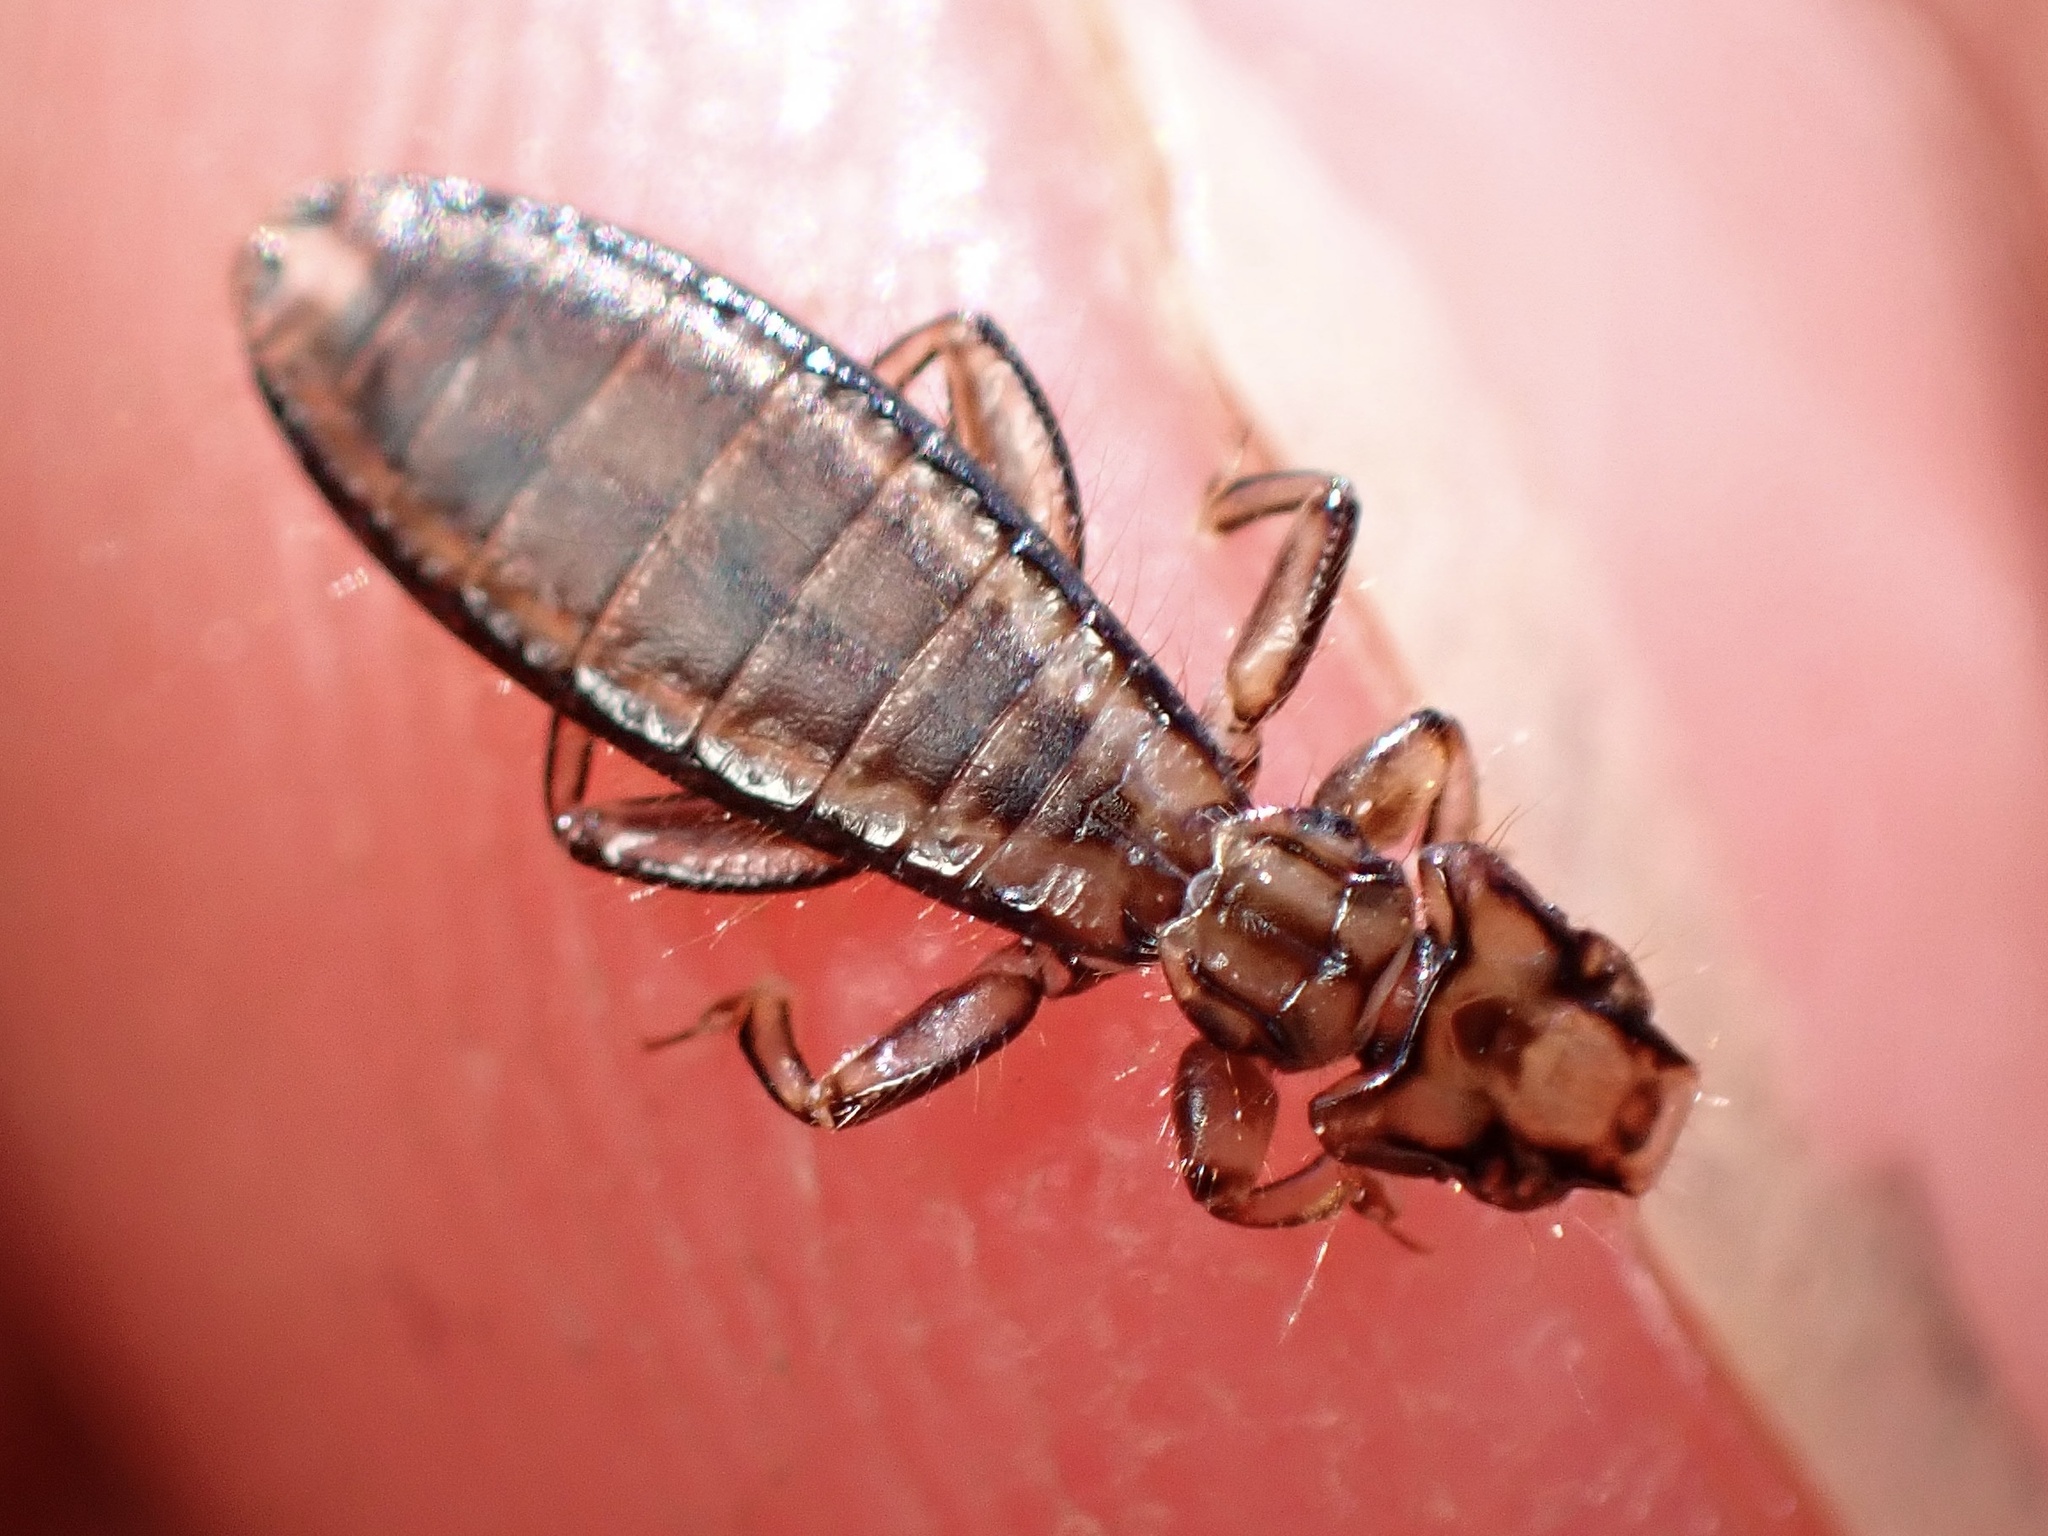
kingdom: Animalia
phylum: Arthropoda
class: Insecta
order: Psocodea
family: Laemobothriidae
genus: Laemobothrion
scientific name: Laemobothrion maximum
